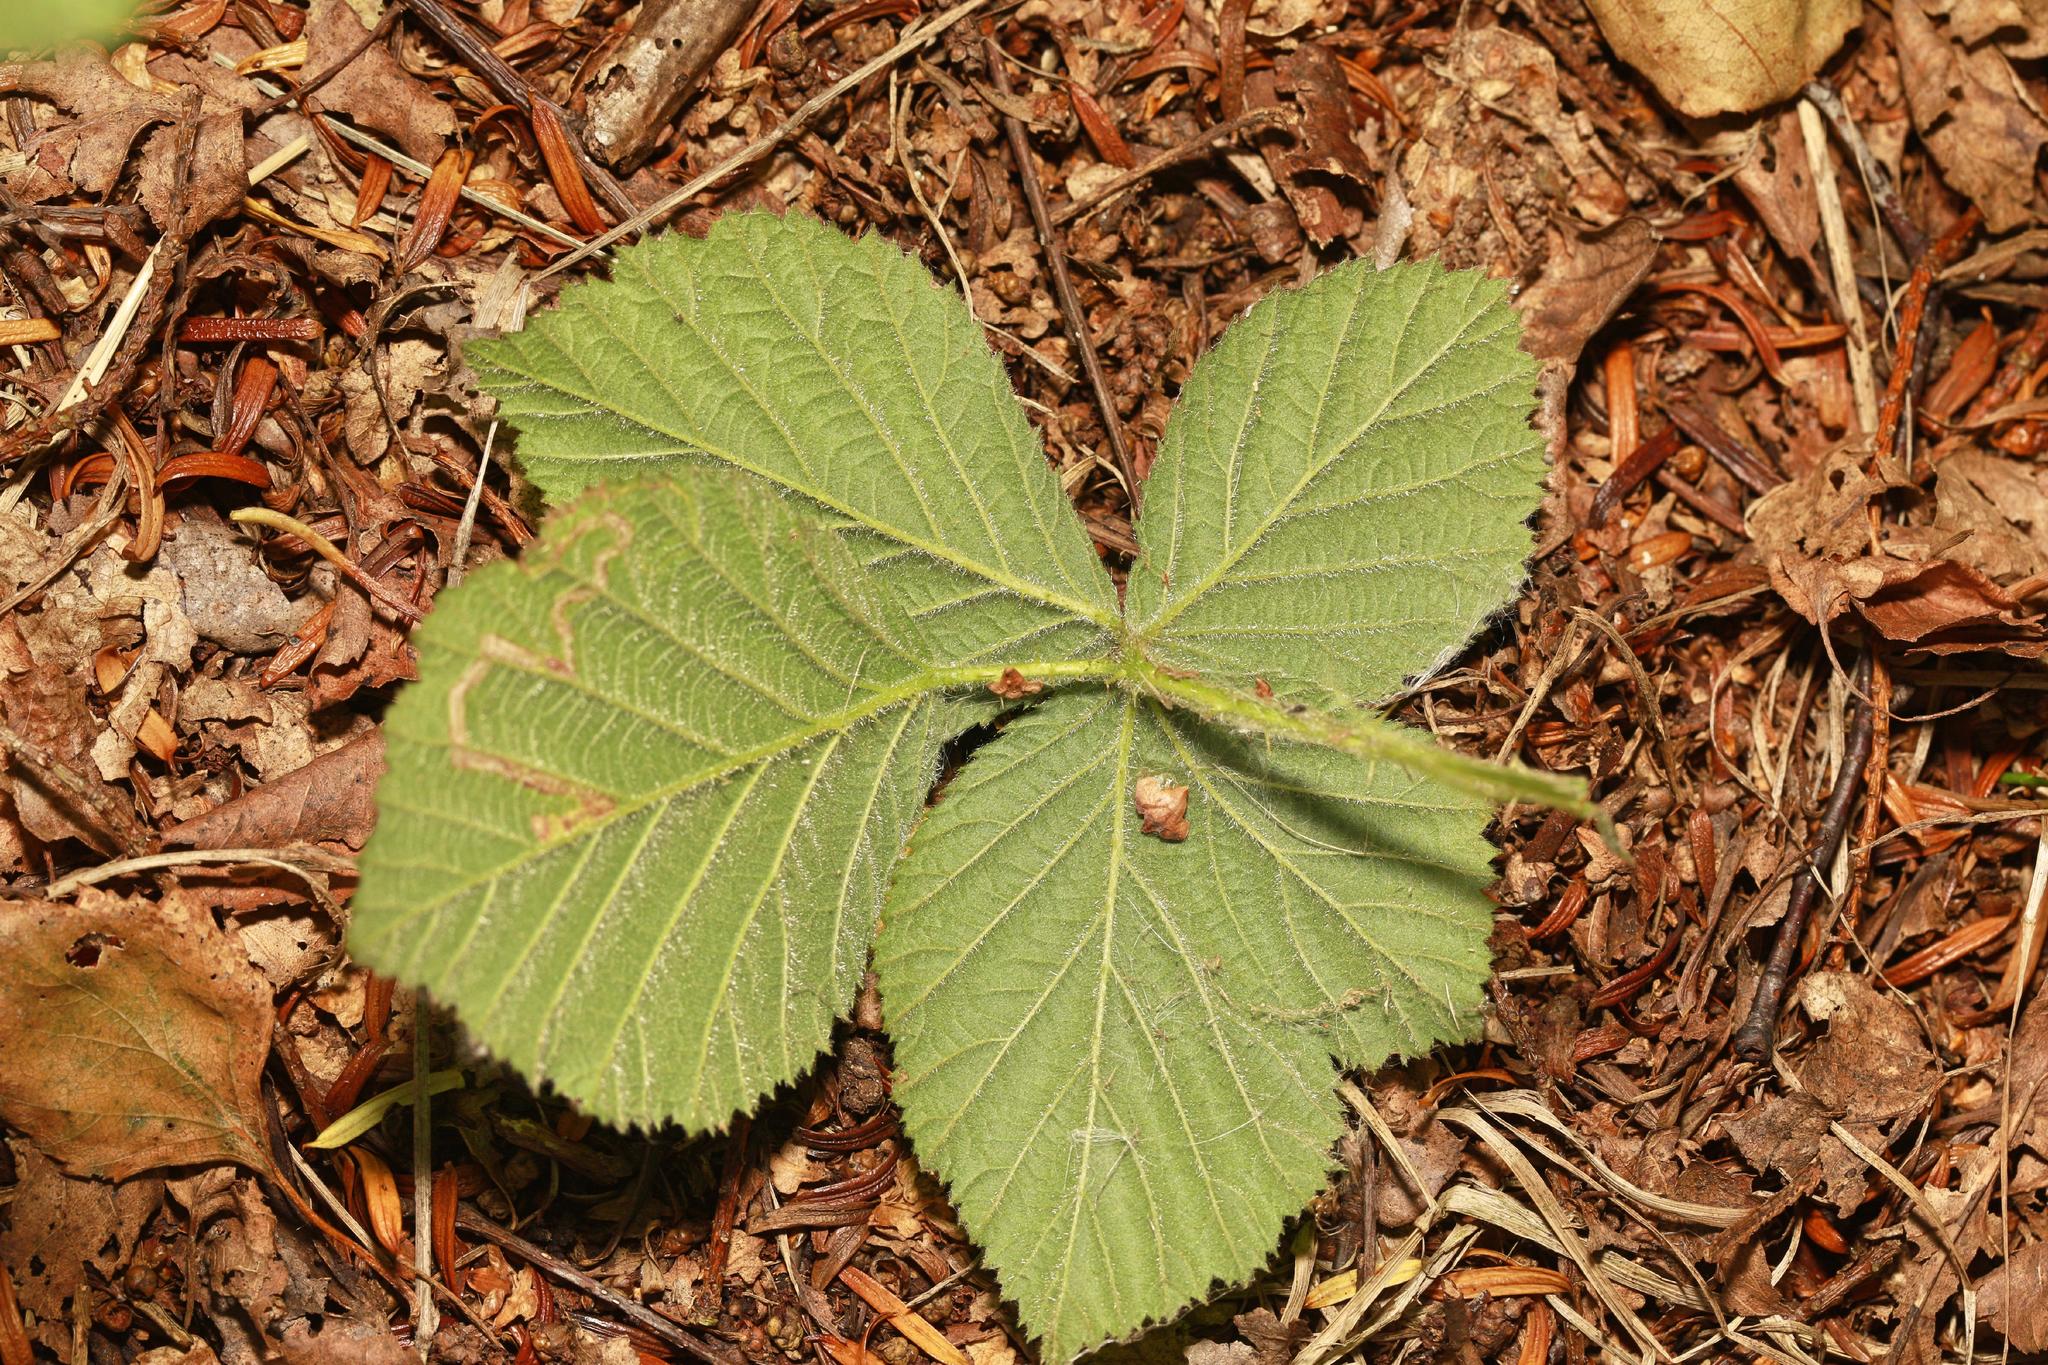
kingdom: Plantae
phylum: Tracheophyta
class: Magnoliopsida
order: Rosales
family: Rosaceae
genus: Rubus
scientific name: Rubus horrefactus
